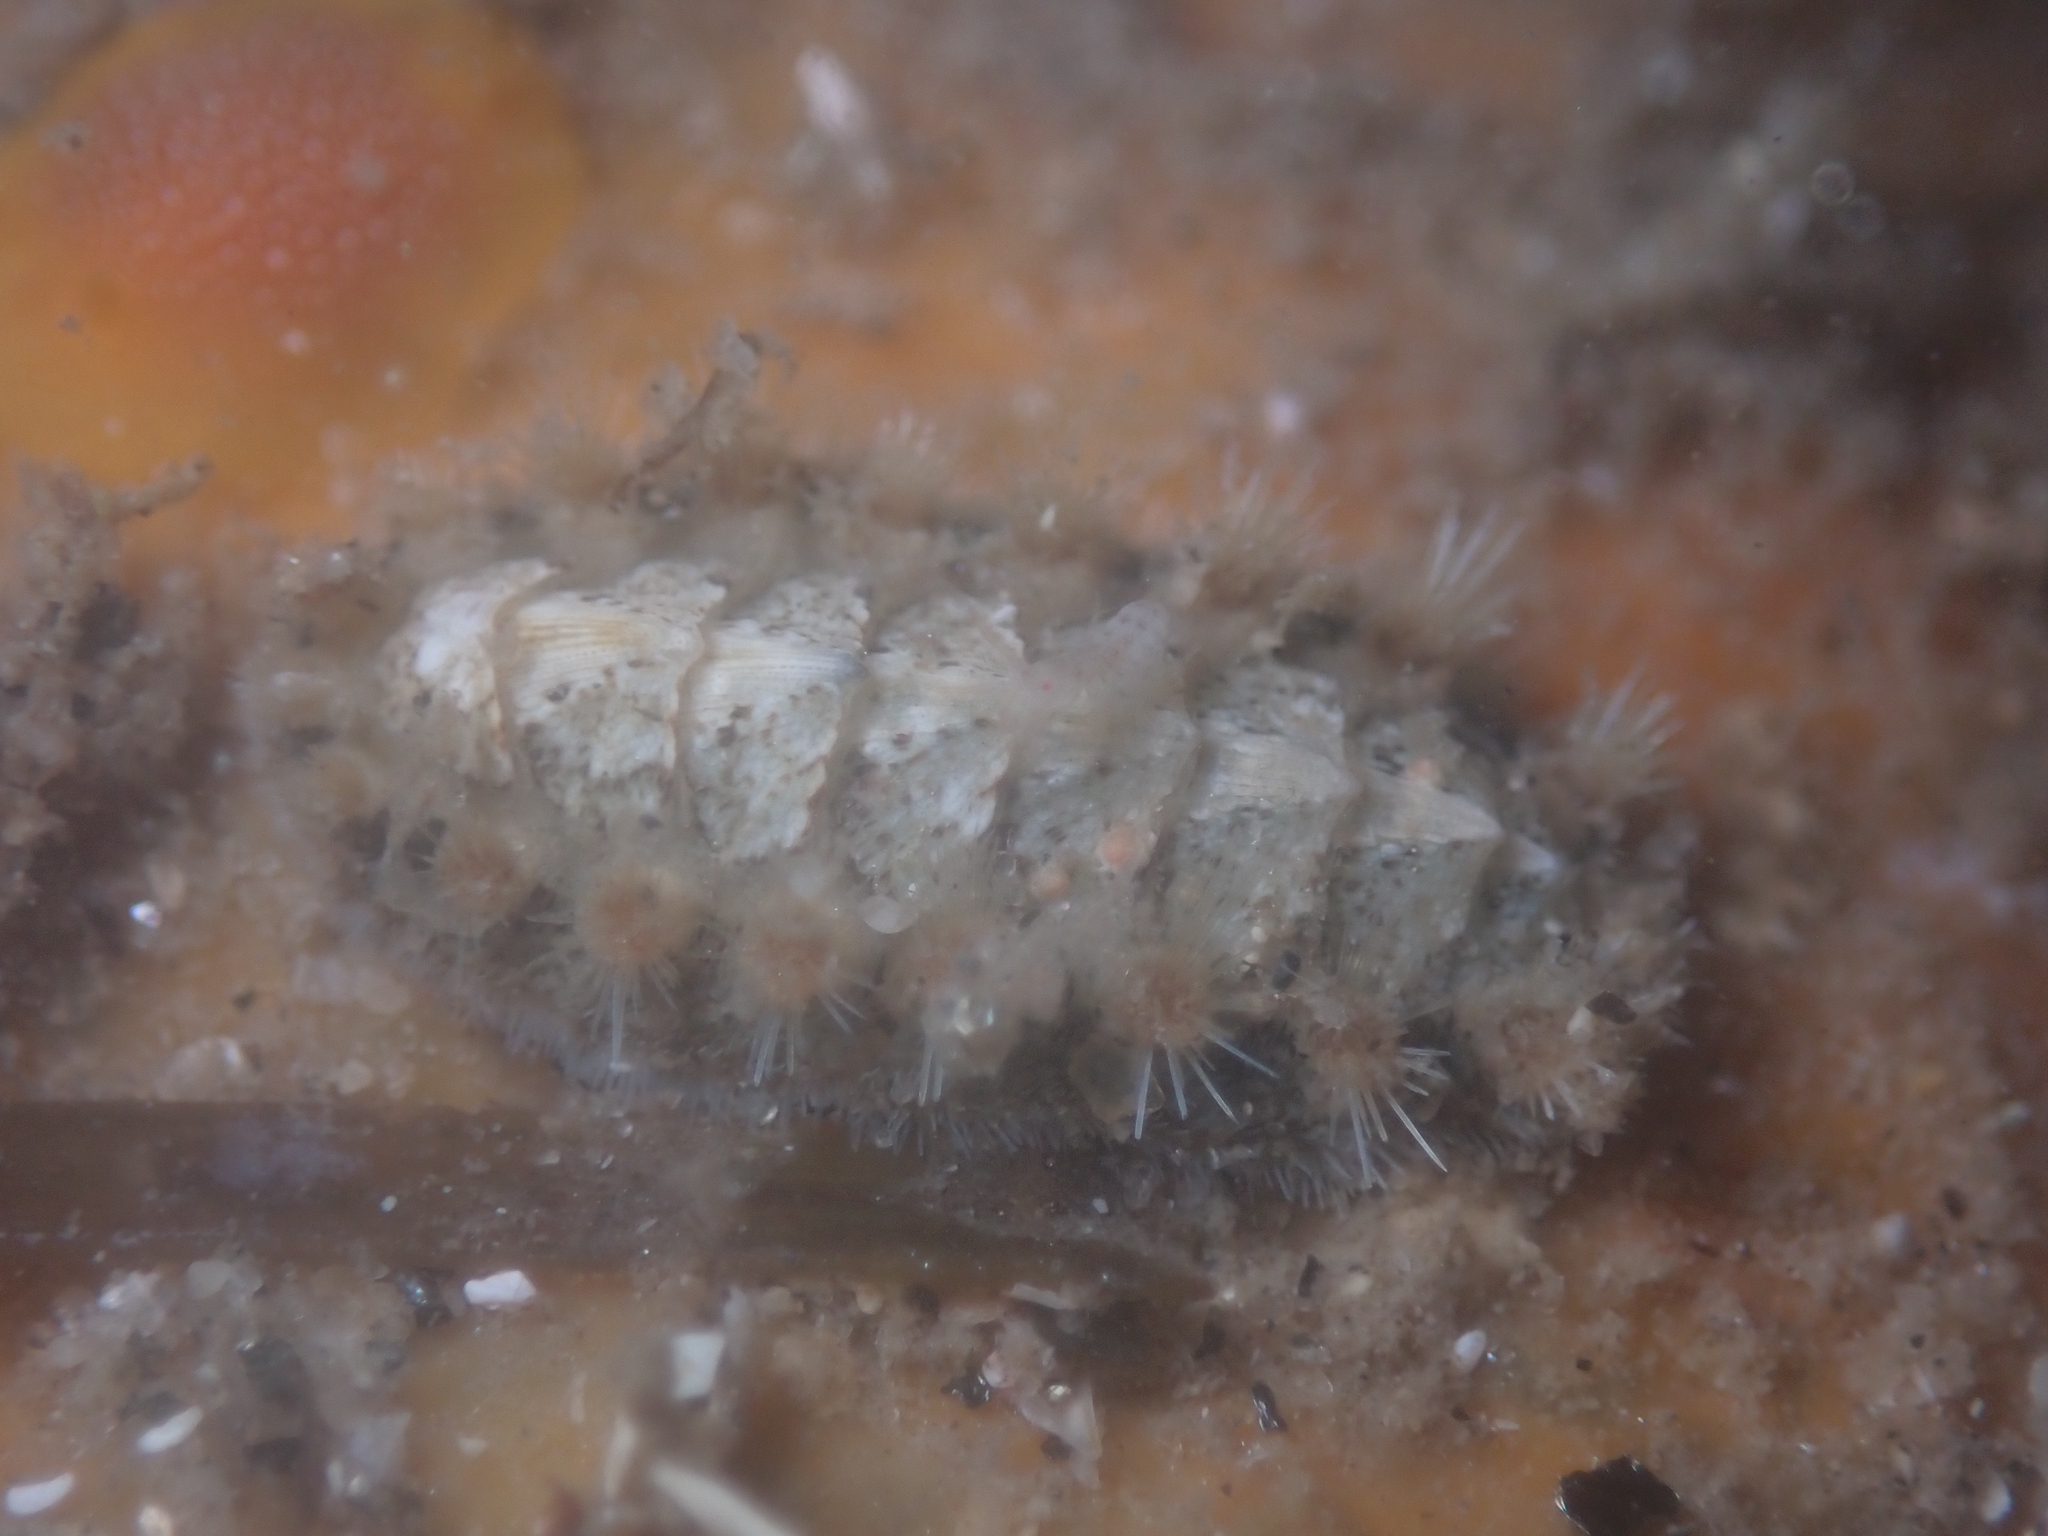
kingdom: Animalia
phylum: Mollusca
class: Polyplacophora
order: Chitonida
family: Acanthochitonidae
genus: Acanthochitona
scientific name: Acanthochitona avicula
